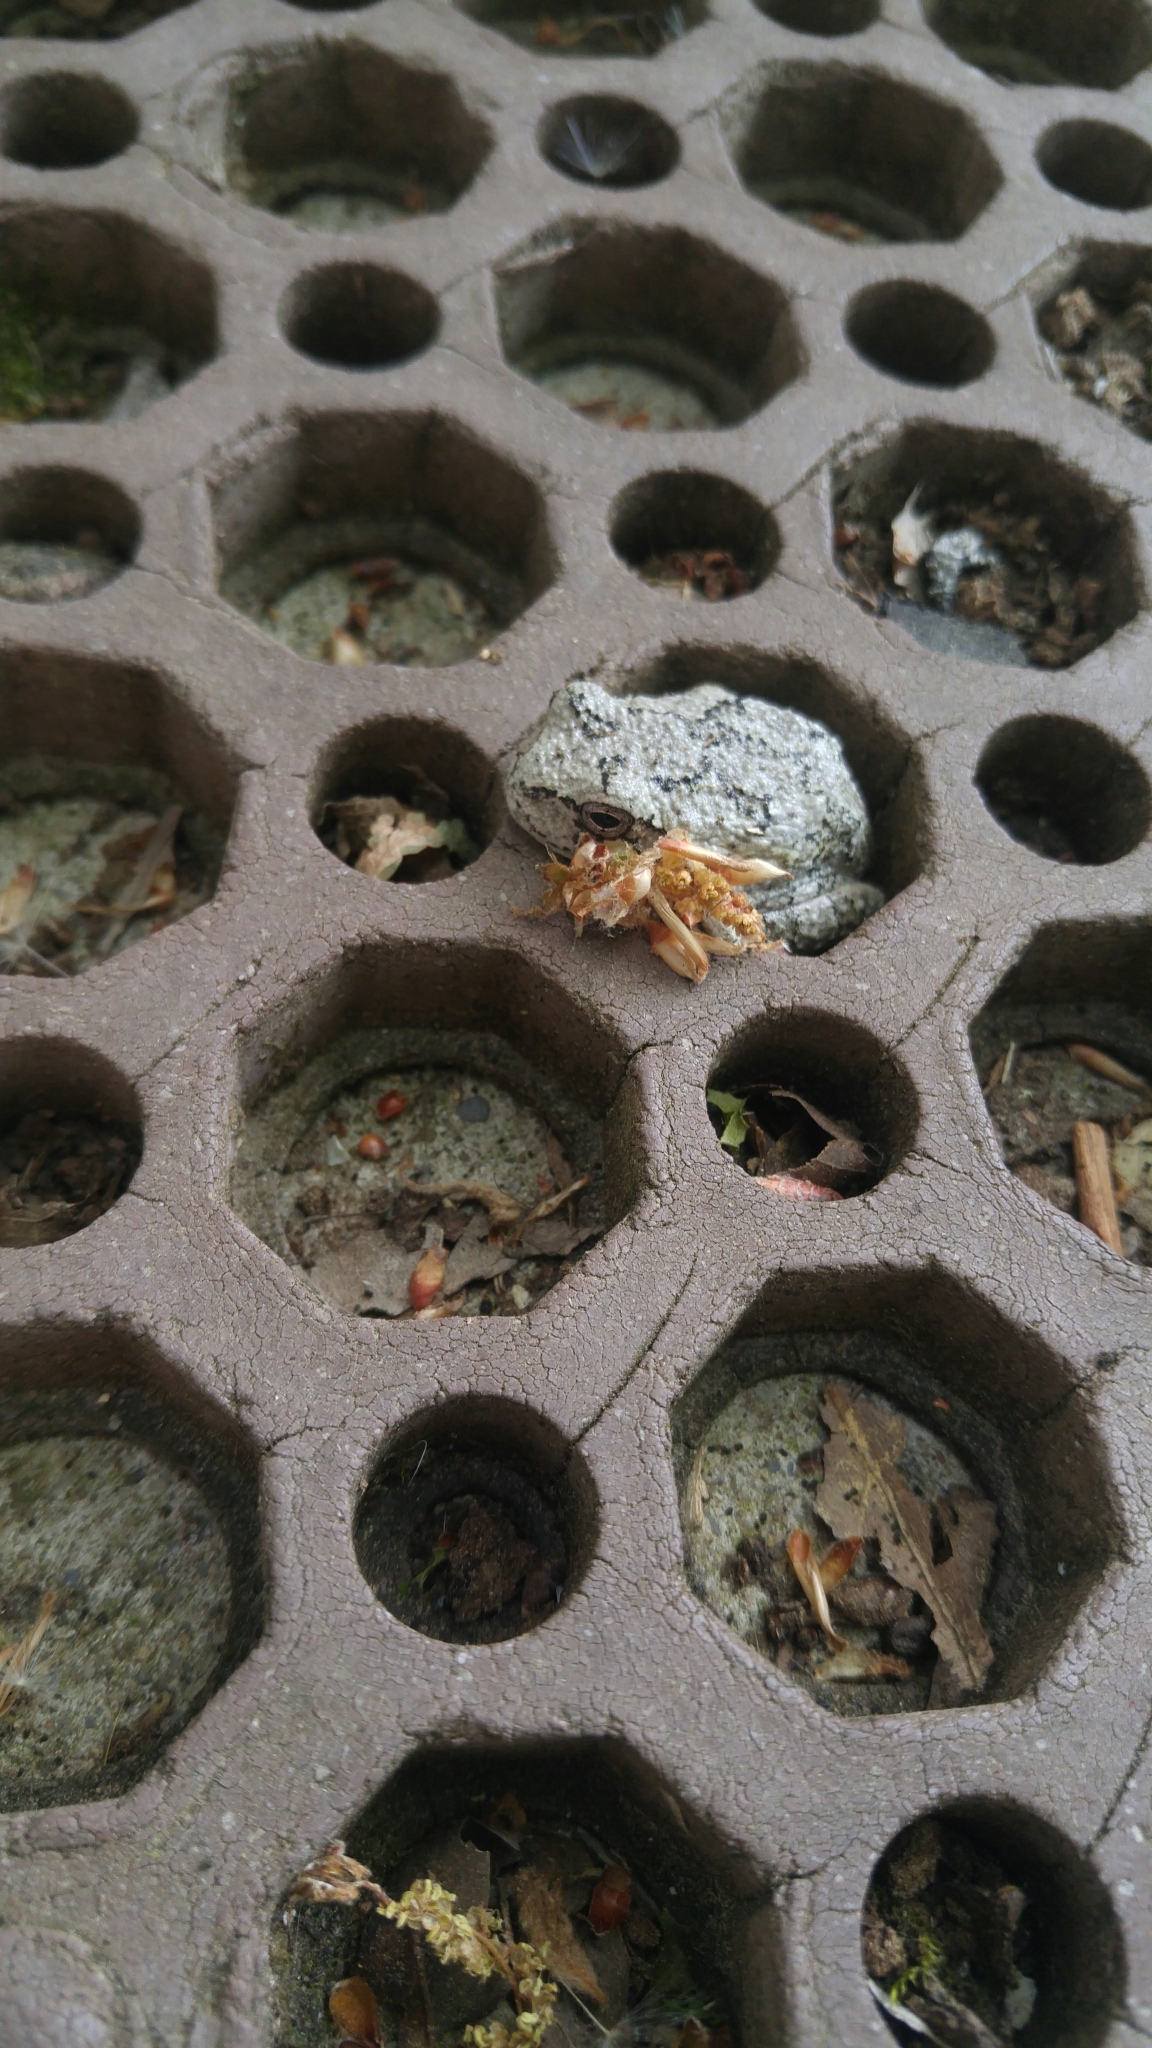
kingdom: Animalia
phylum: Chordata
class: Amphibia
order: Anura
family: Hylidae
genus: Dryophytes
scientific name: Dryophytes versicolor
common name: Gray treefrog
